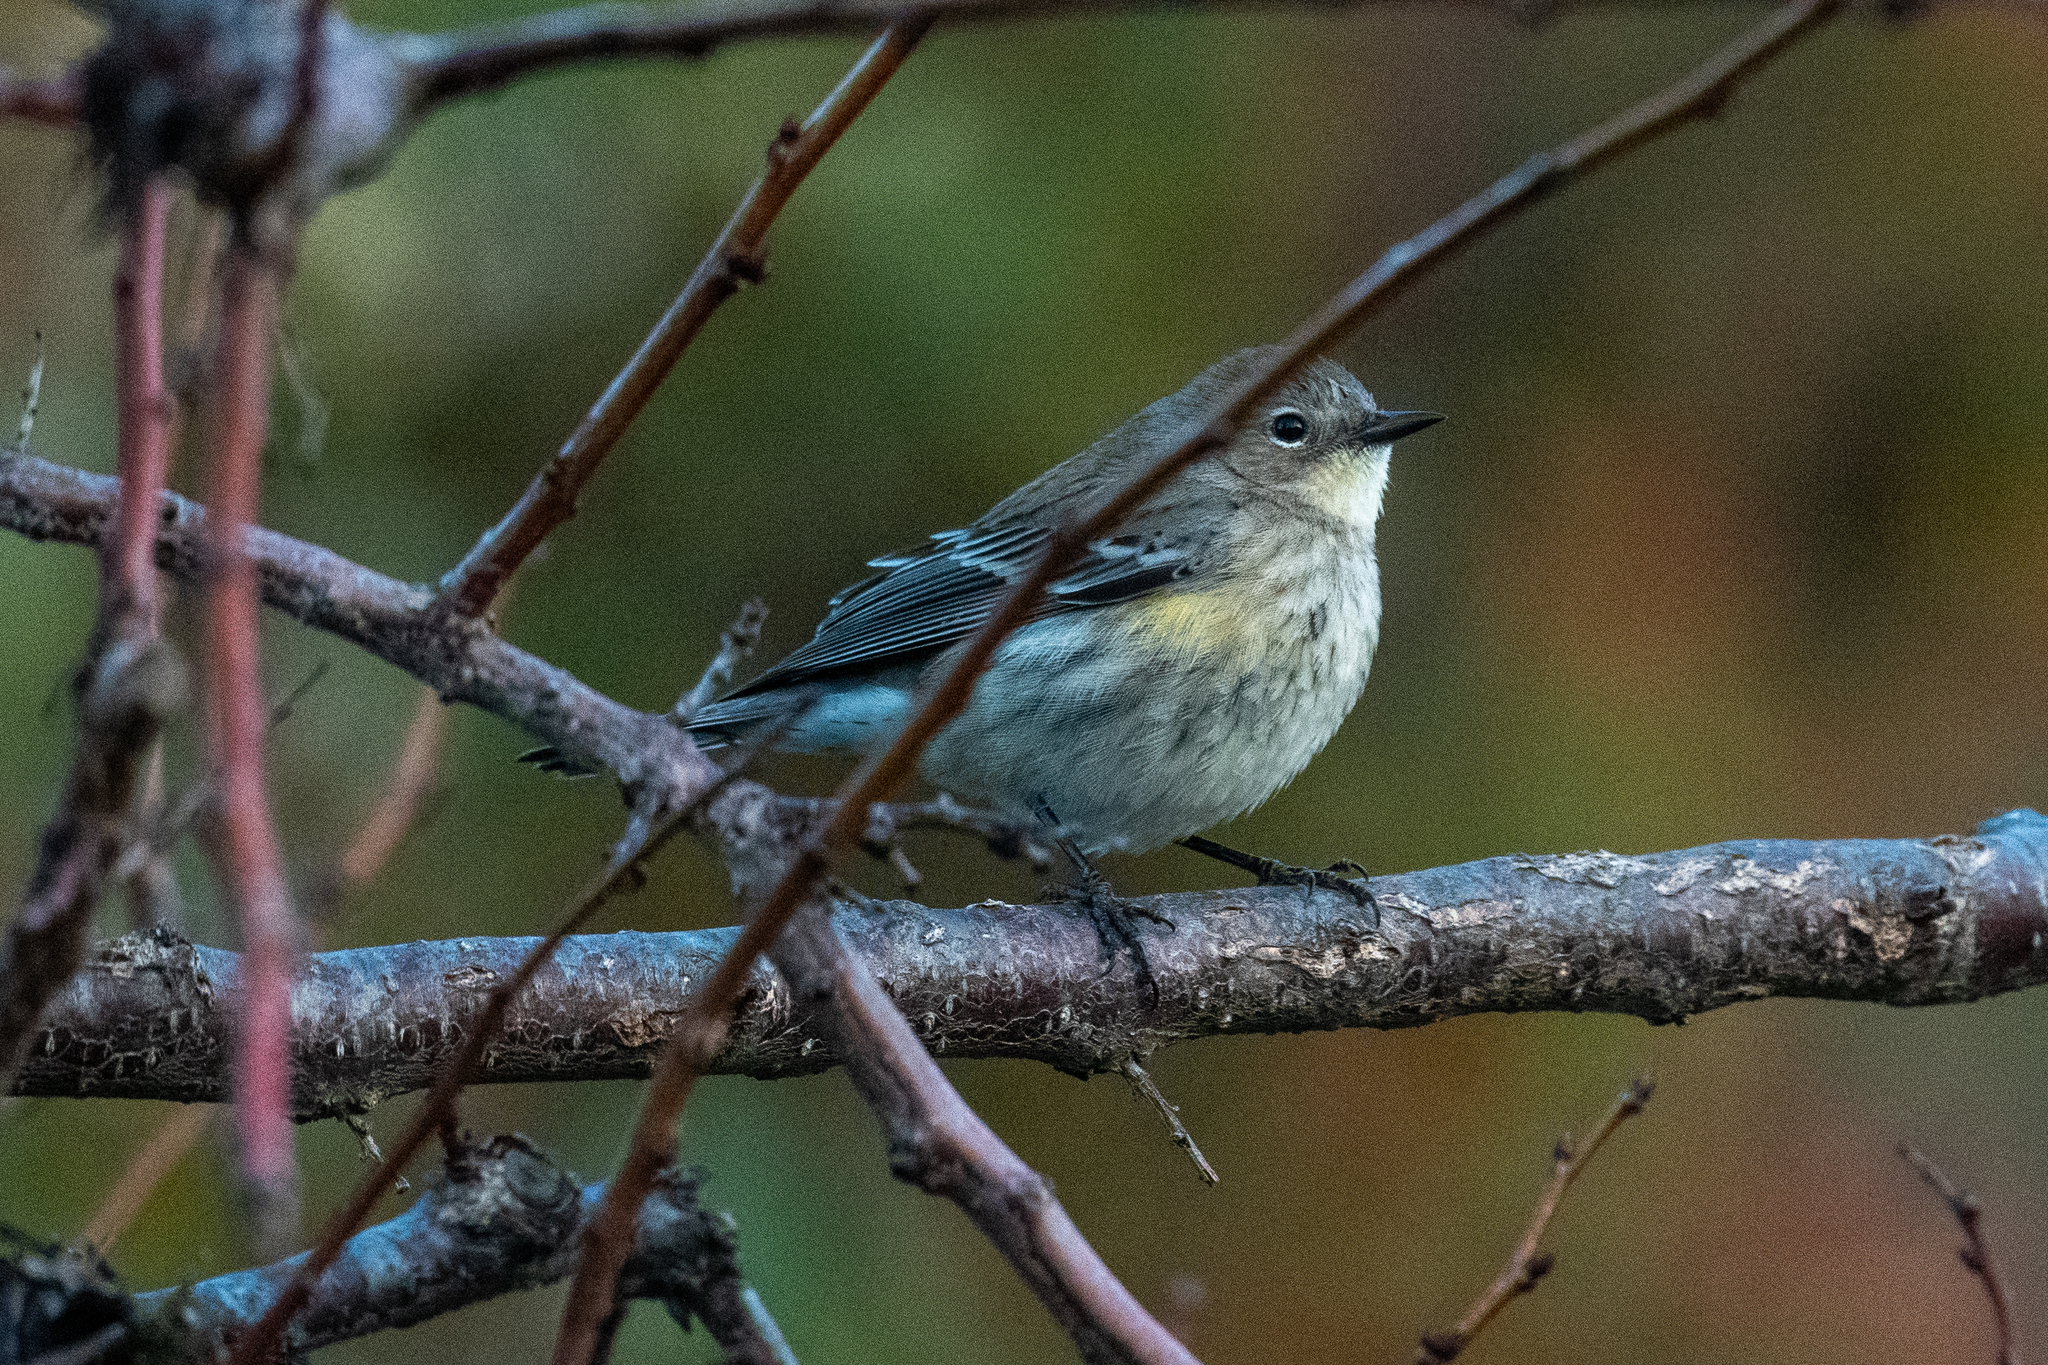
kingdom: Animalia
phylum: Chordata
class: Aves
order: Passeriformes
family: Parulidae
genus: Setophaga
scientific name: Setophaga coronata
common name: Myrtle warbler
